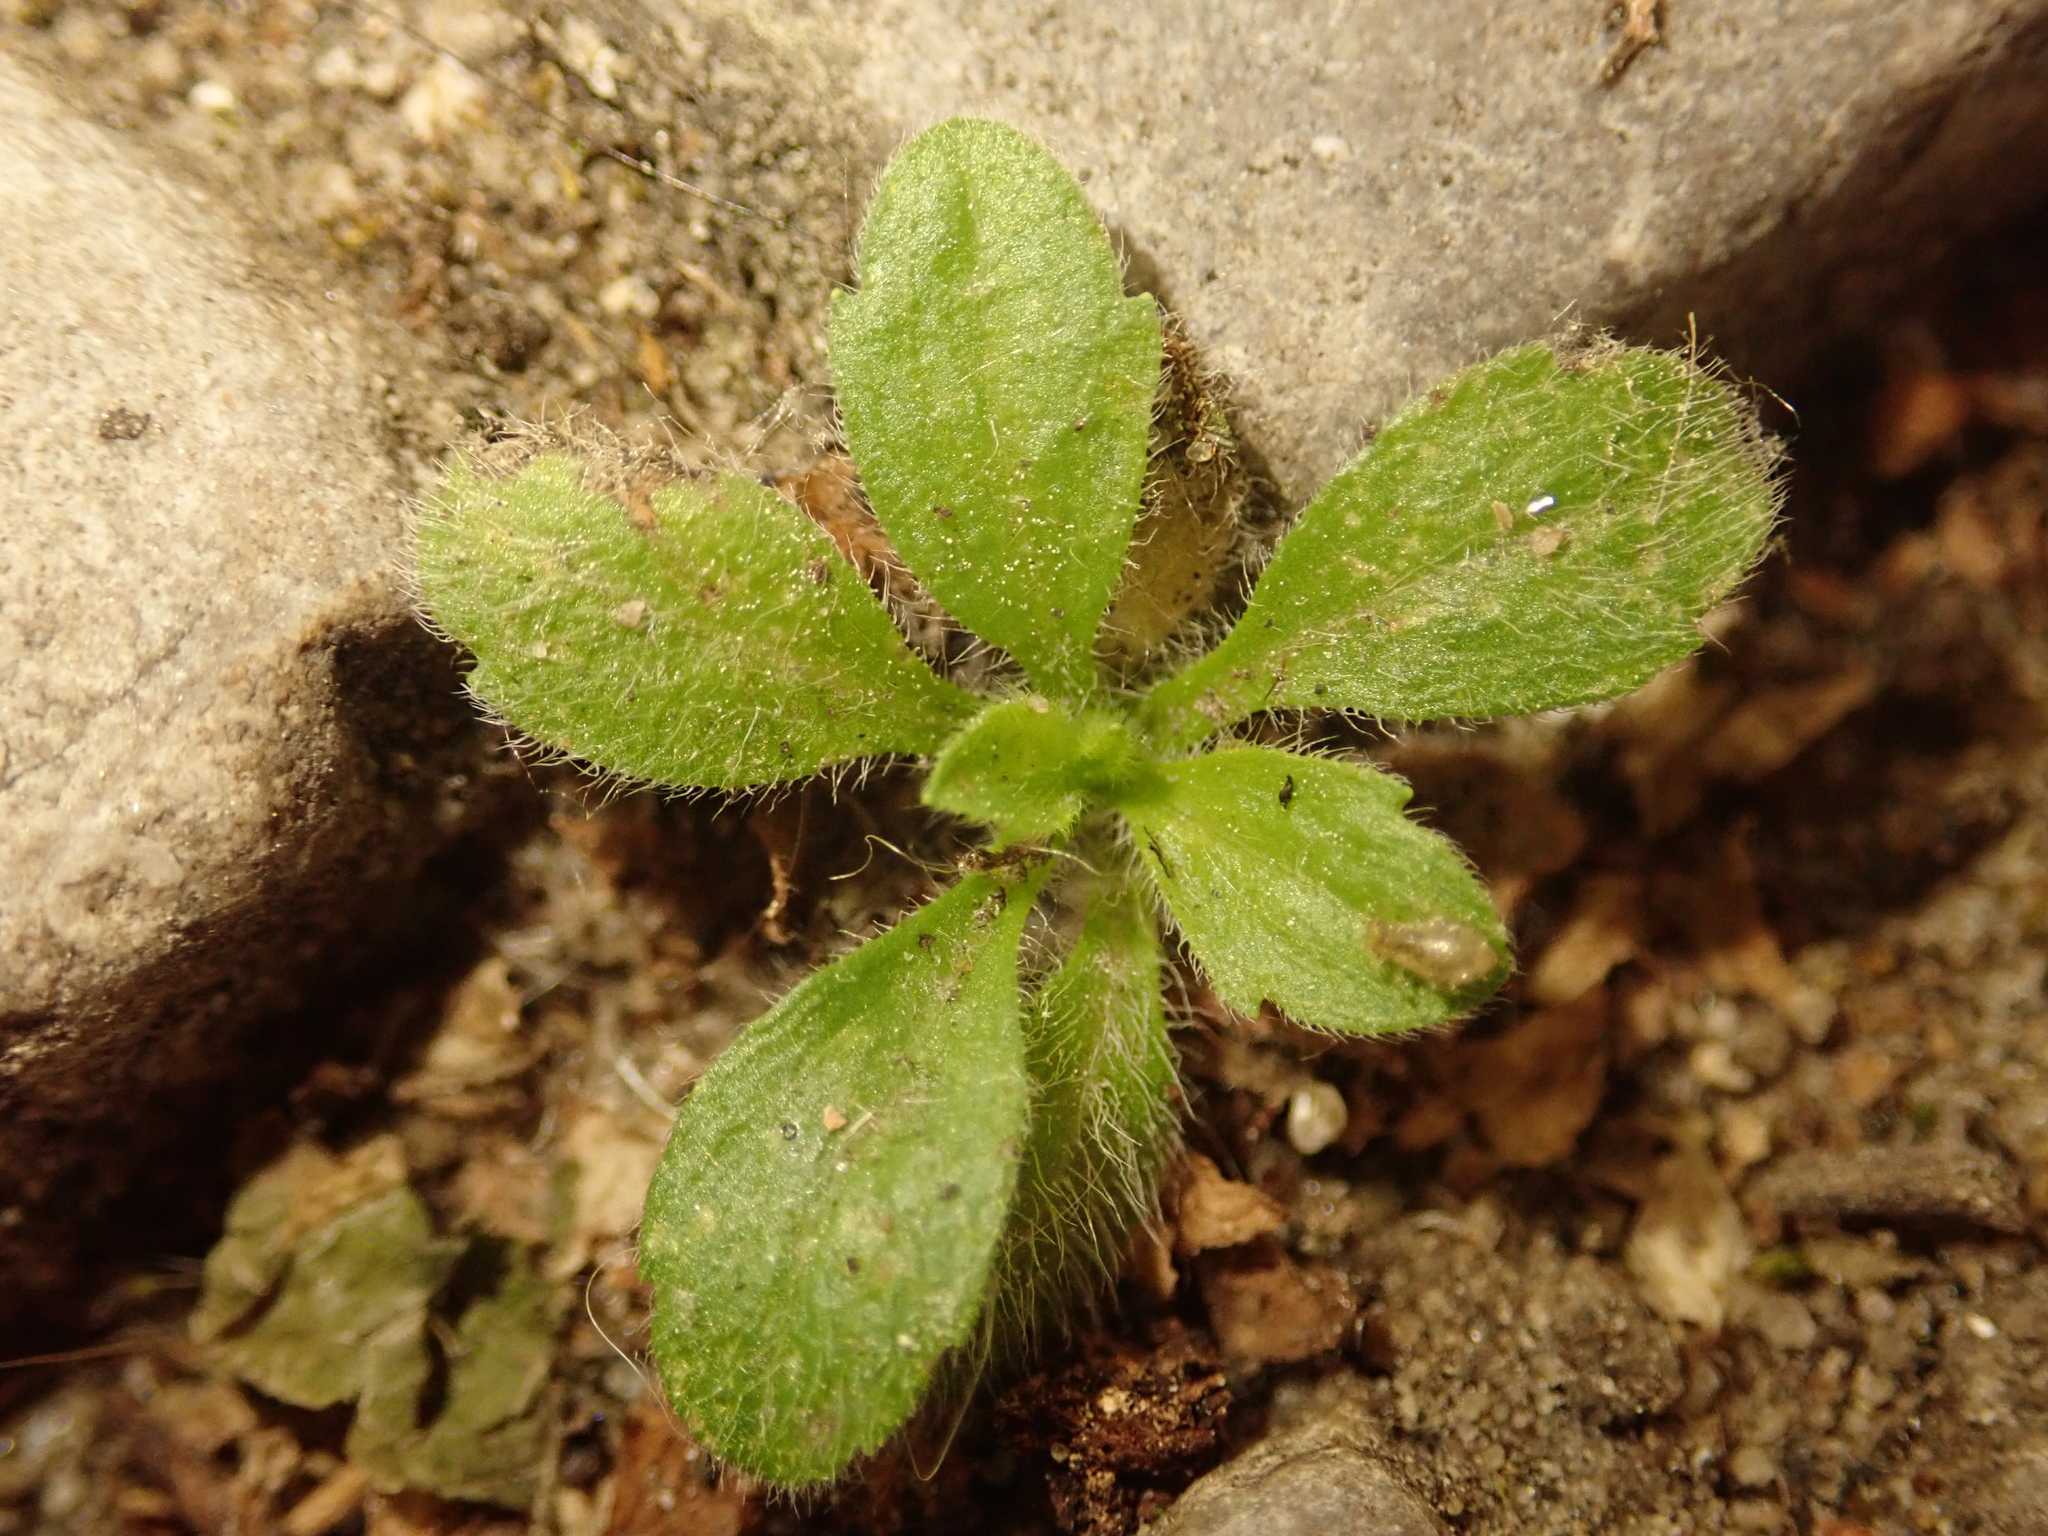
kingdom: Plantae
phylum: Tracheophyta
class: Magnoliopsida
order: Asterales
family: Asteraceae
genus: Erigeron
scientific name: Erigeron canadensis
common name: Canadian fleabane
